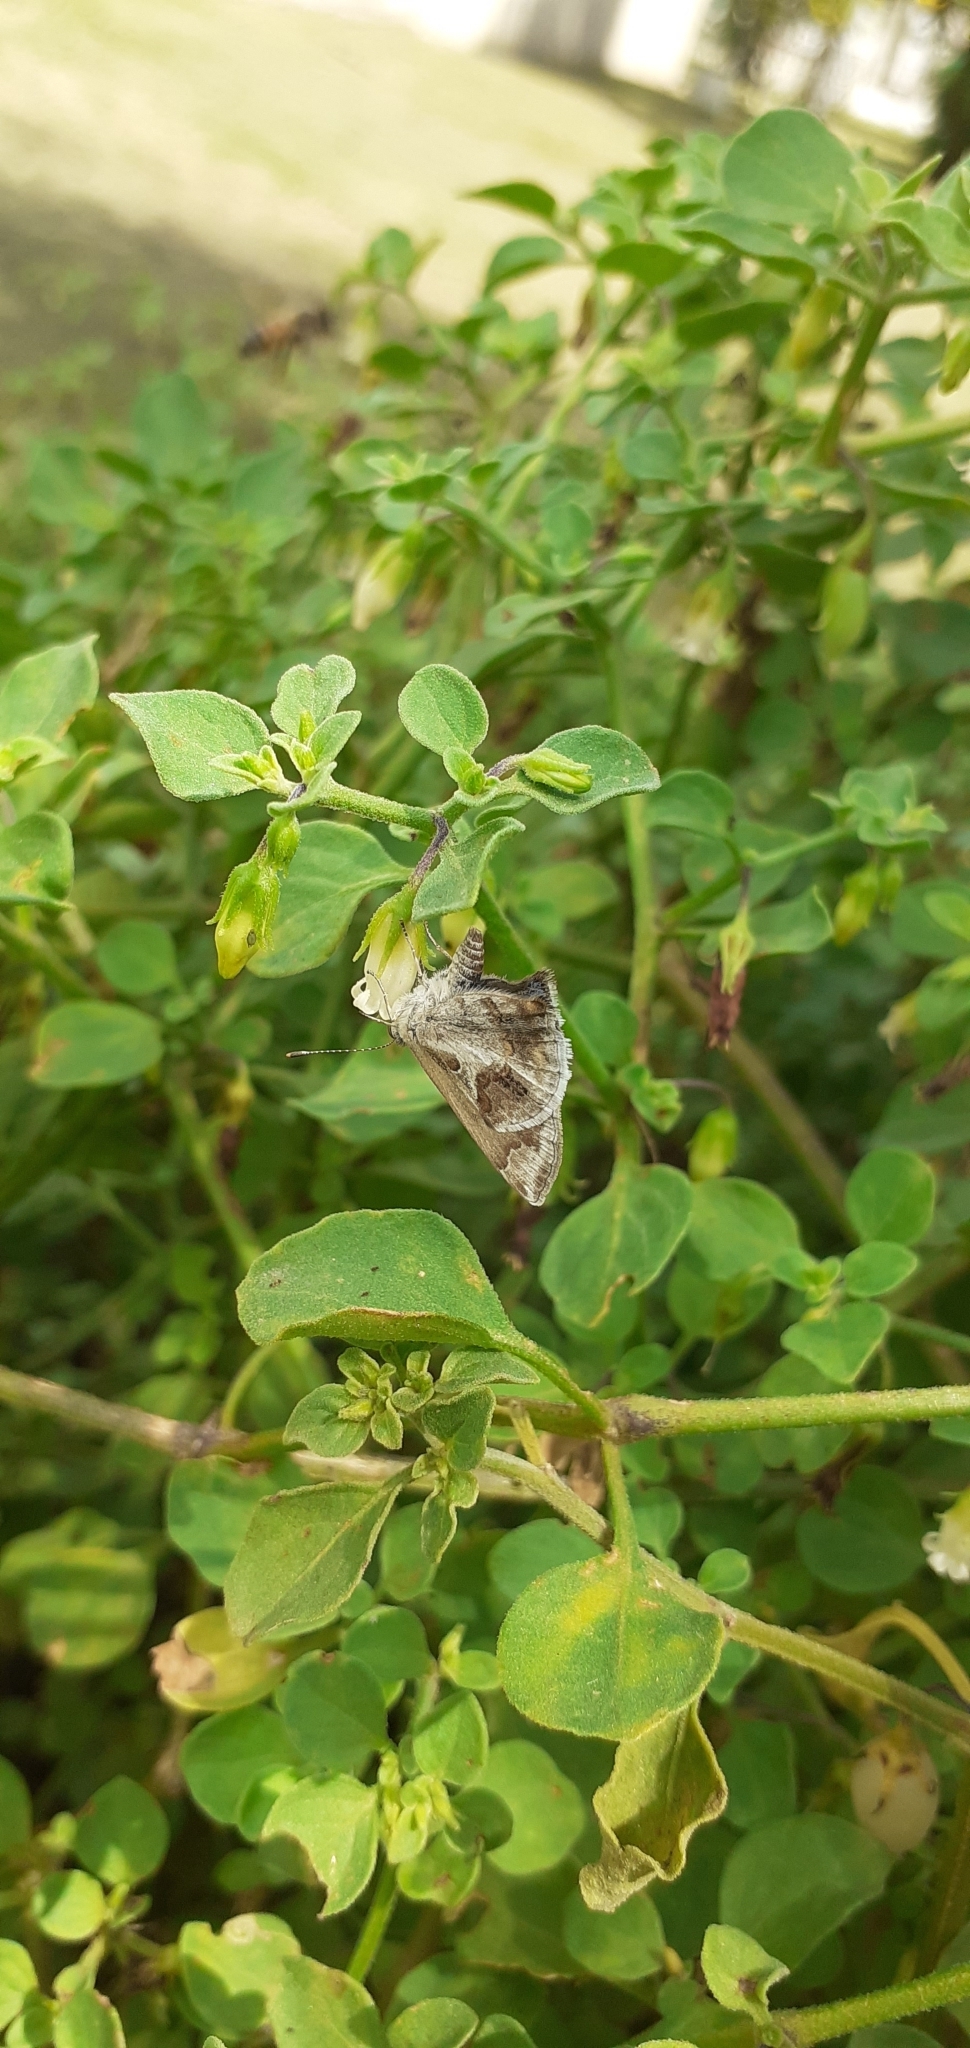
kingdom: Animalia
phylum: Arthropoda
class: Insecta
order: Lepidoptera
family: Lycaenidae
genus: Strymon
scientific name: Strymon bazochii
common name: Lantana scrub-hairstreak
